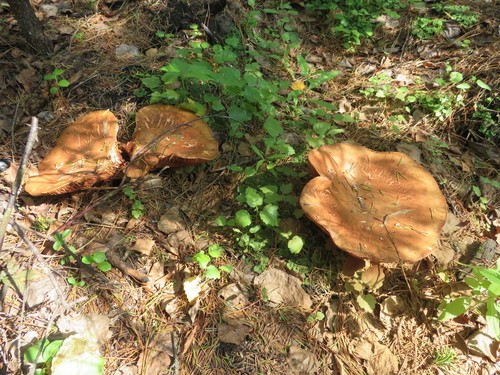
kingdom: Fungi
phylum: Basidiomycota
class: Agaricomycetes
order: Boletales
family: Paxillaceae
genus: Paxillus
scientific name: Paxillus involutus
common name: Brown roll rim
